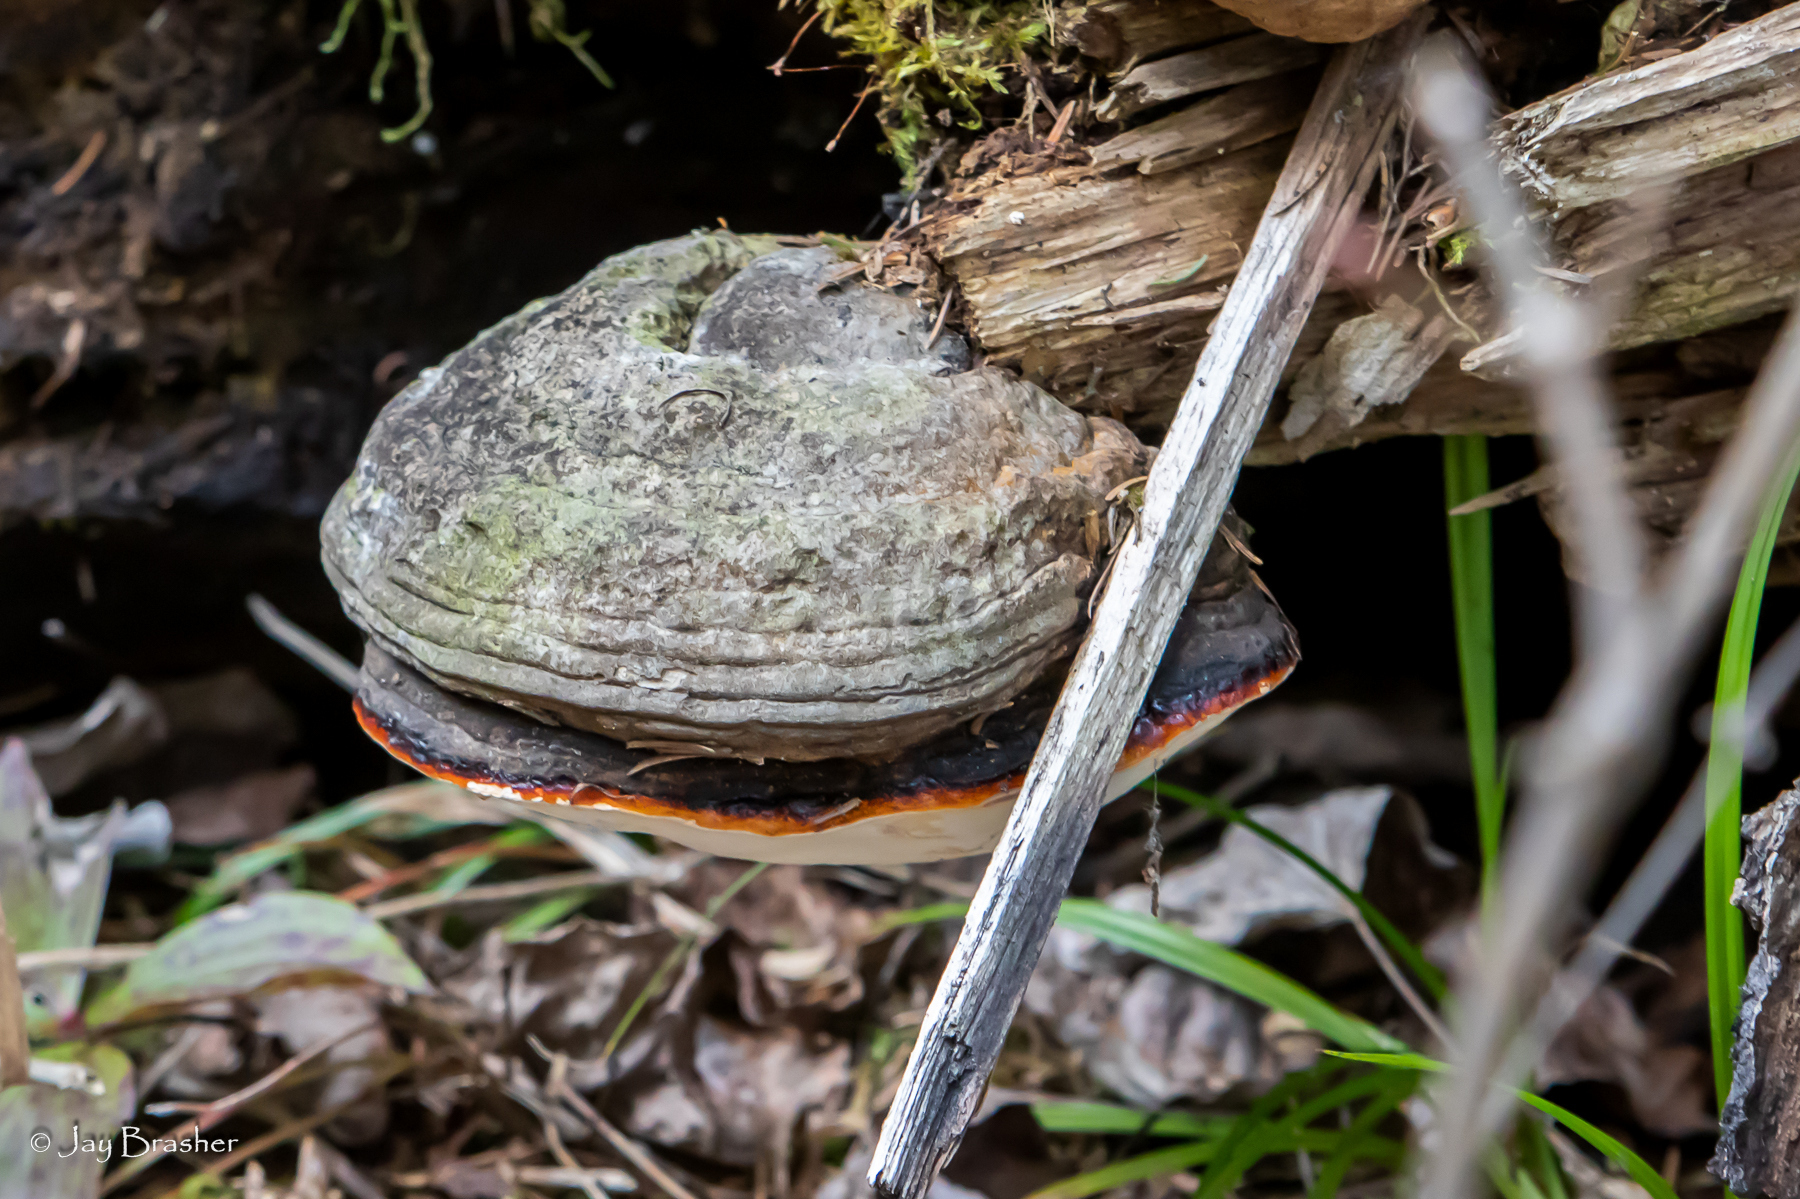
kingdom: Fungi
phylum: Basidiomycota
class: Agaricomycetes
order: Polyporales
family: Fomitopsidaceae
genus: Fomitopsis
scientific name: Fomitopsis mounceae
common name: Northern red belt
